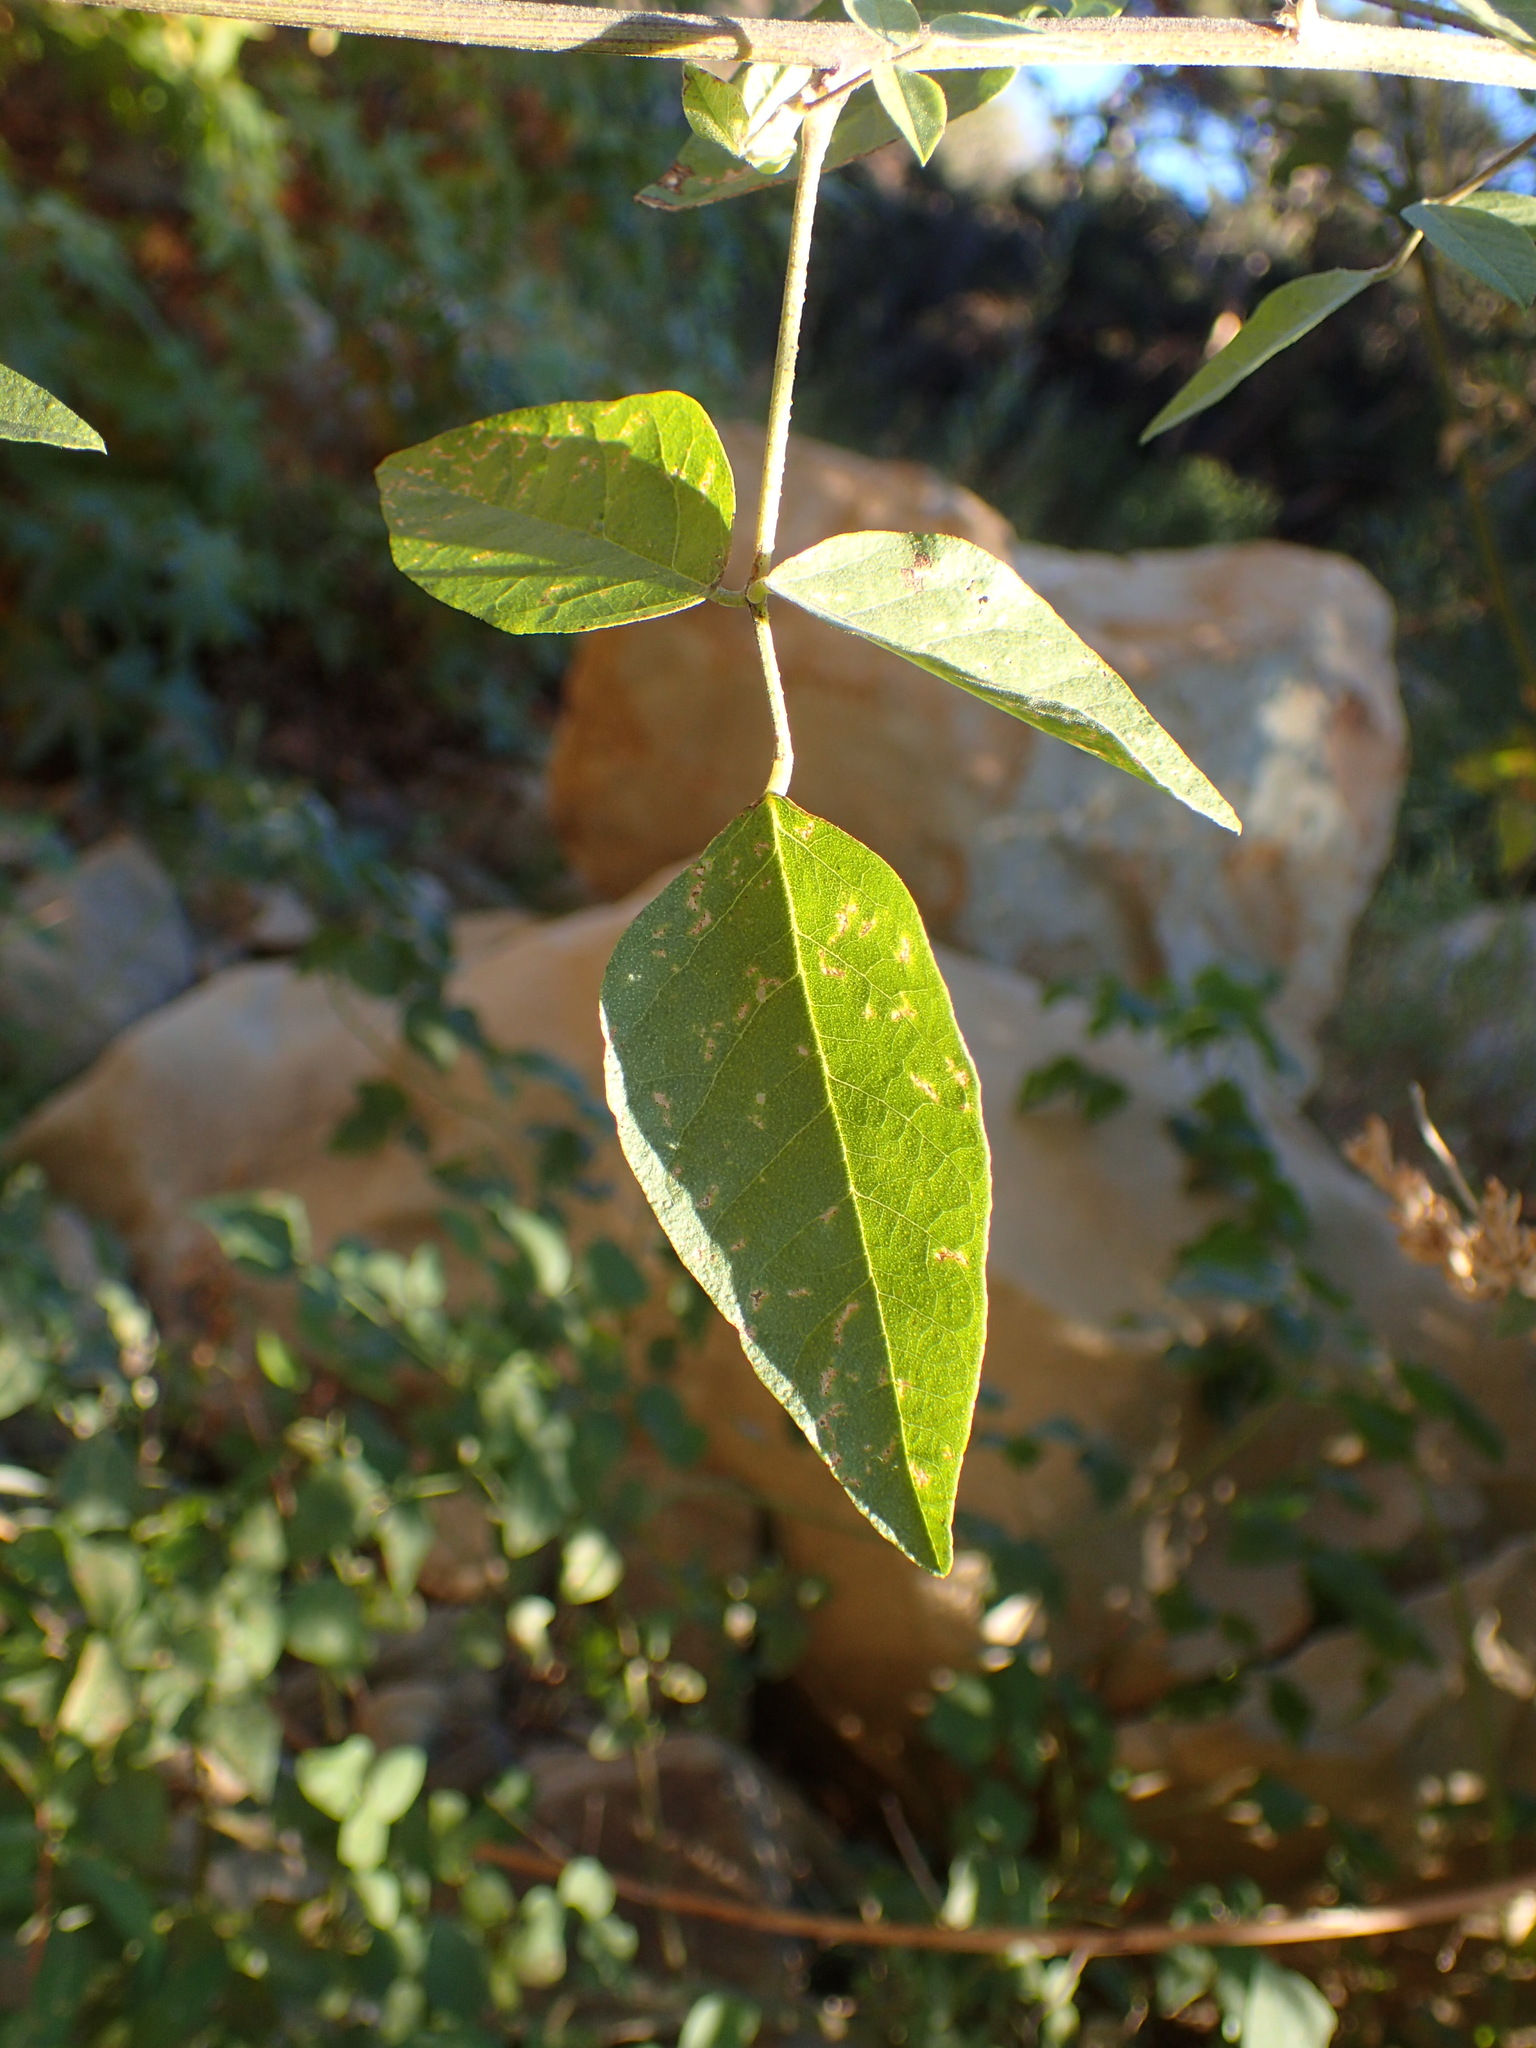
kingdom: Plantae
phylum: Tracheophyta
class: Magnoliopsida
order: Fabales
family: Fabaceae
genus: Hoita
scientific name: Hoita macrostachya
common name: Leatherroot
